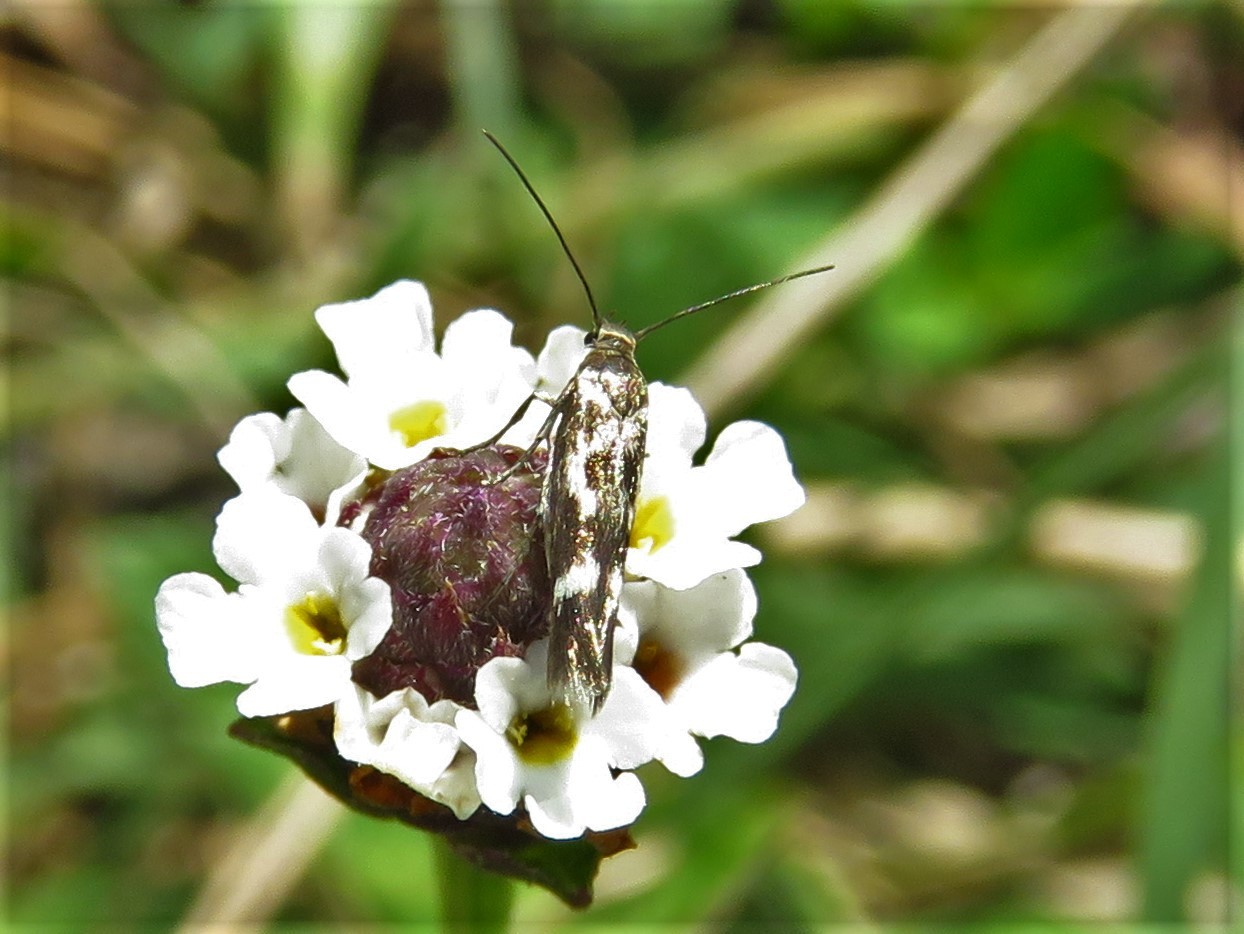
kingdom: Animalia
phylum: Arthropoda
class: Insecta
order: Lepidoptera
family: Scythrididae
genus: Scythris
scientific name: Scythris trivinctella
